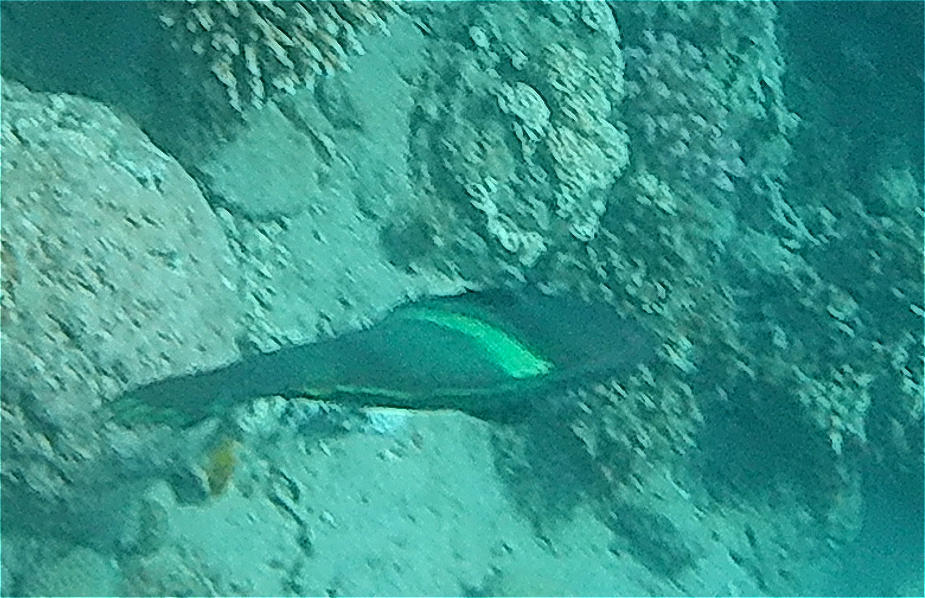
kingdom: Animalia
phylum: Chordata
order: Perciformes
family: Labridae
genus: Coris
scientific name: Coris aygula
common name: Clown coris
